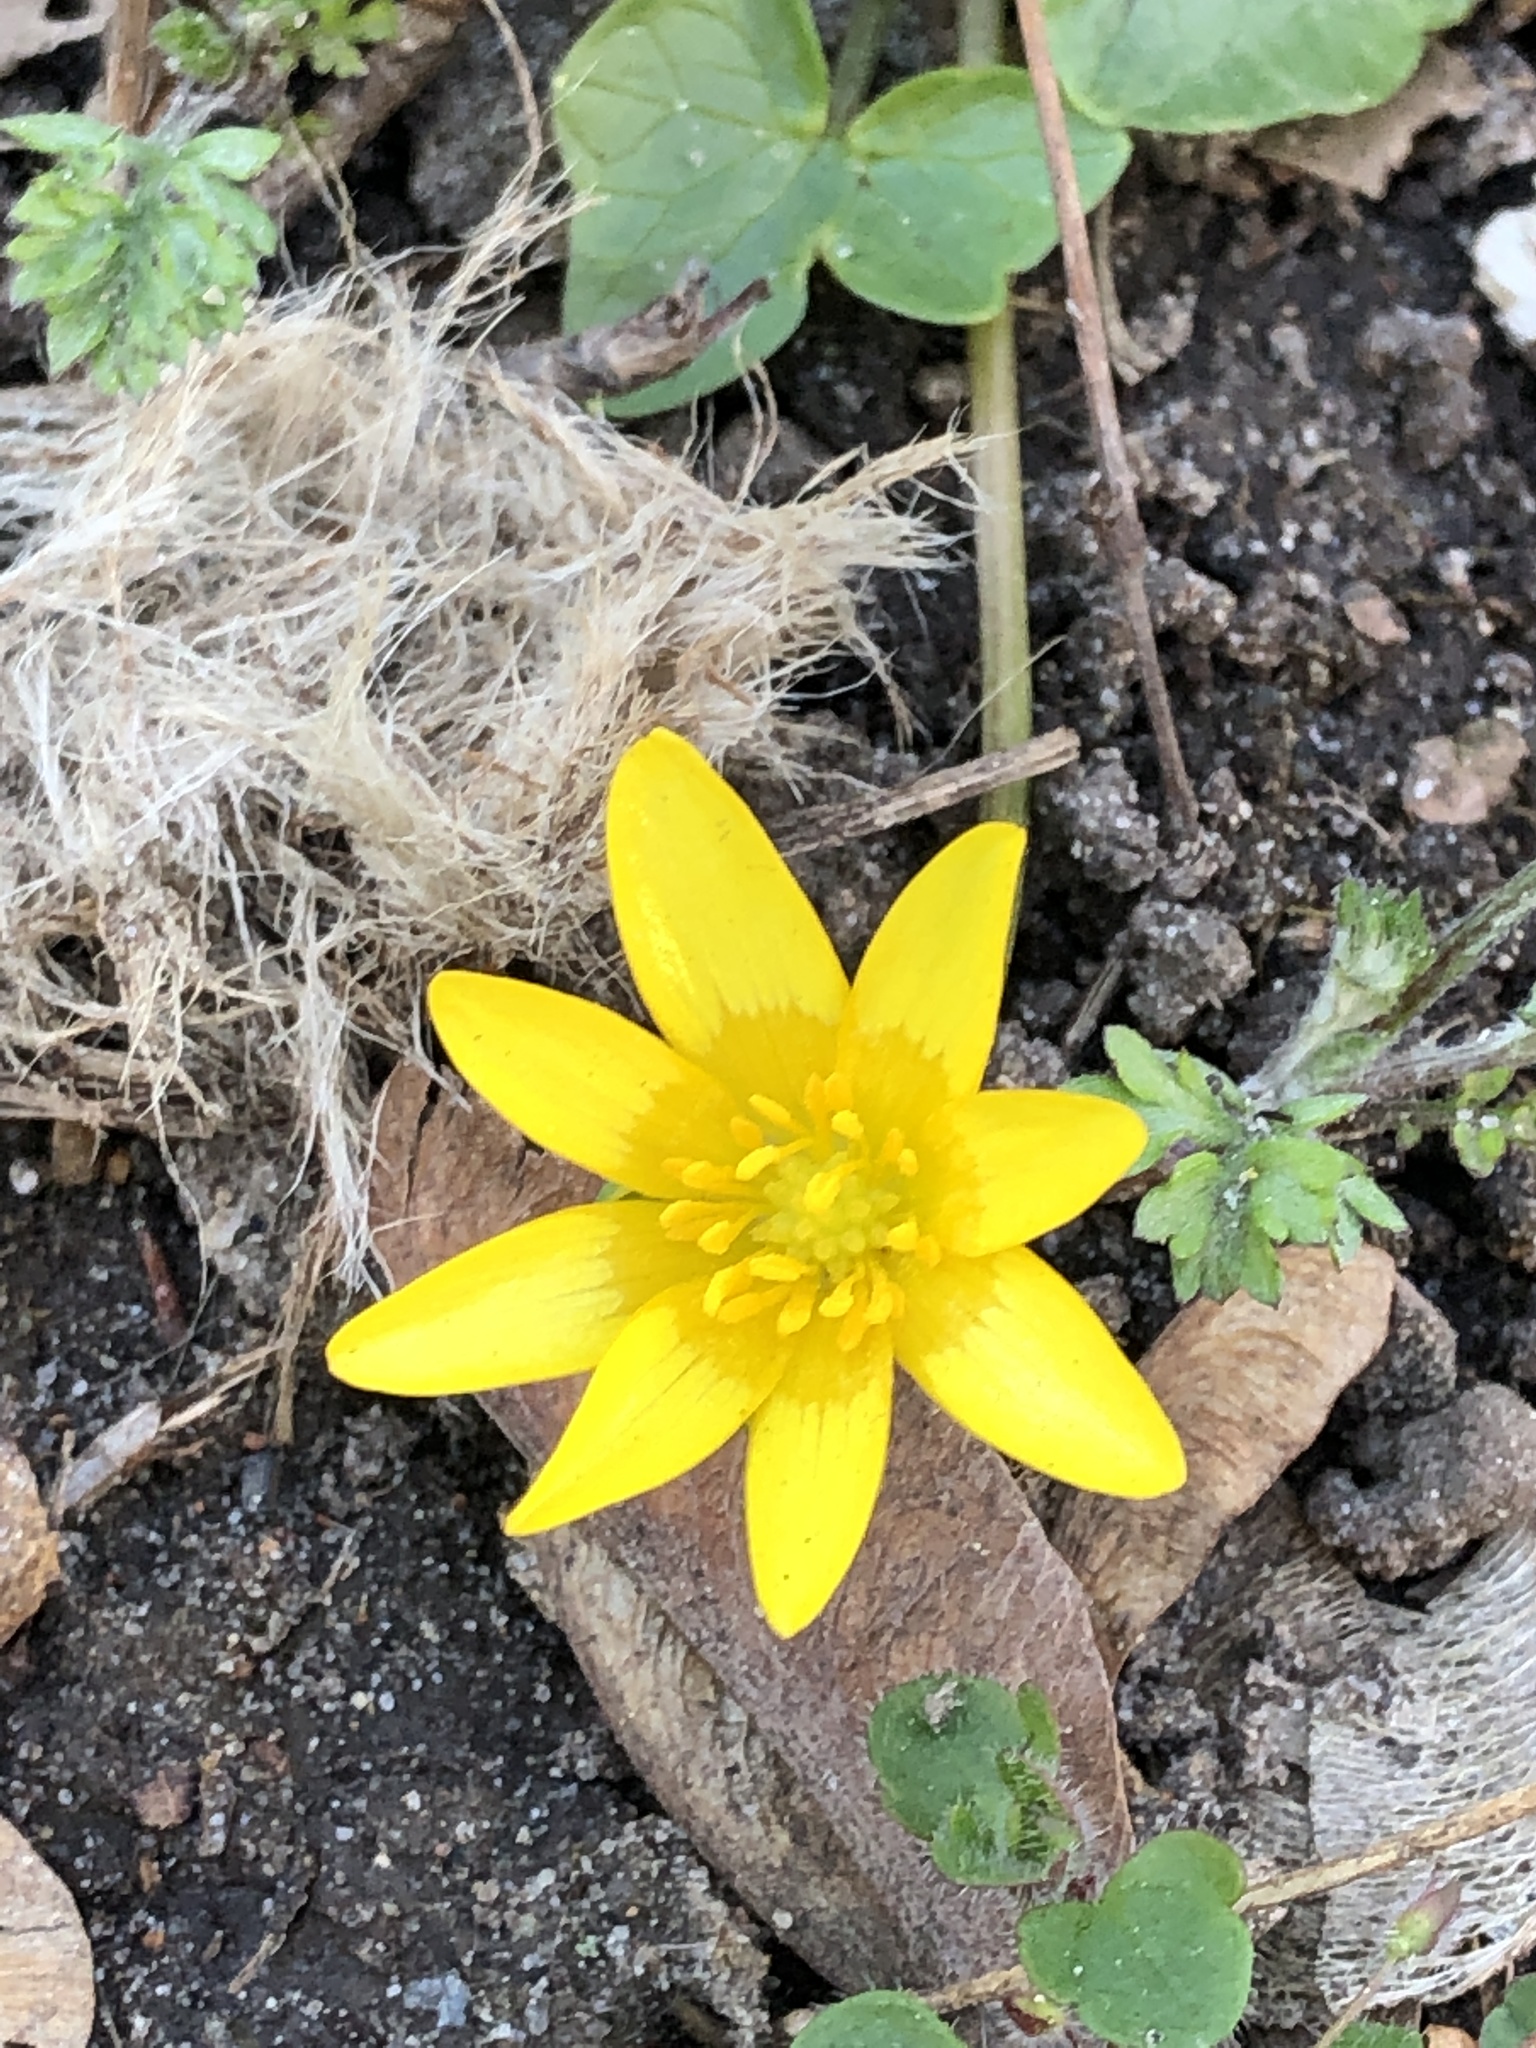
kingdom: Plantae
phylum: Tracheophyta
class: Magnoliopsida
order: Ranunculales
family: Ranunculaceae
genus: Ficaria
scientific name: Ficaria verna
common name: Lesser celandine
